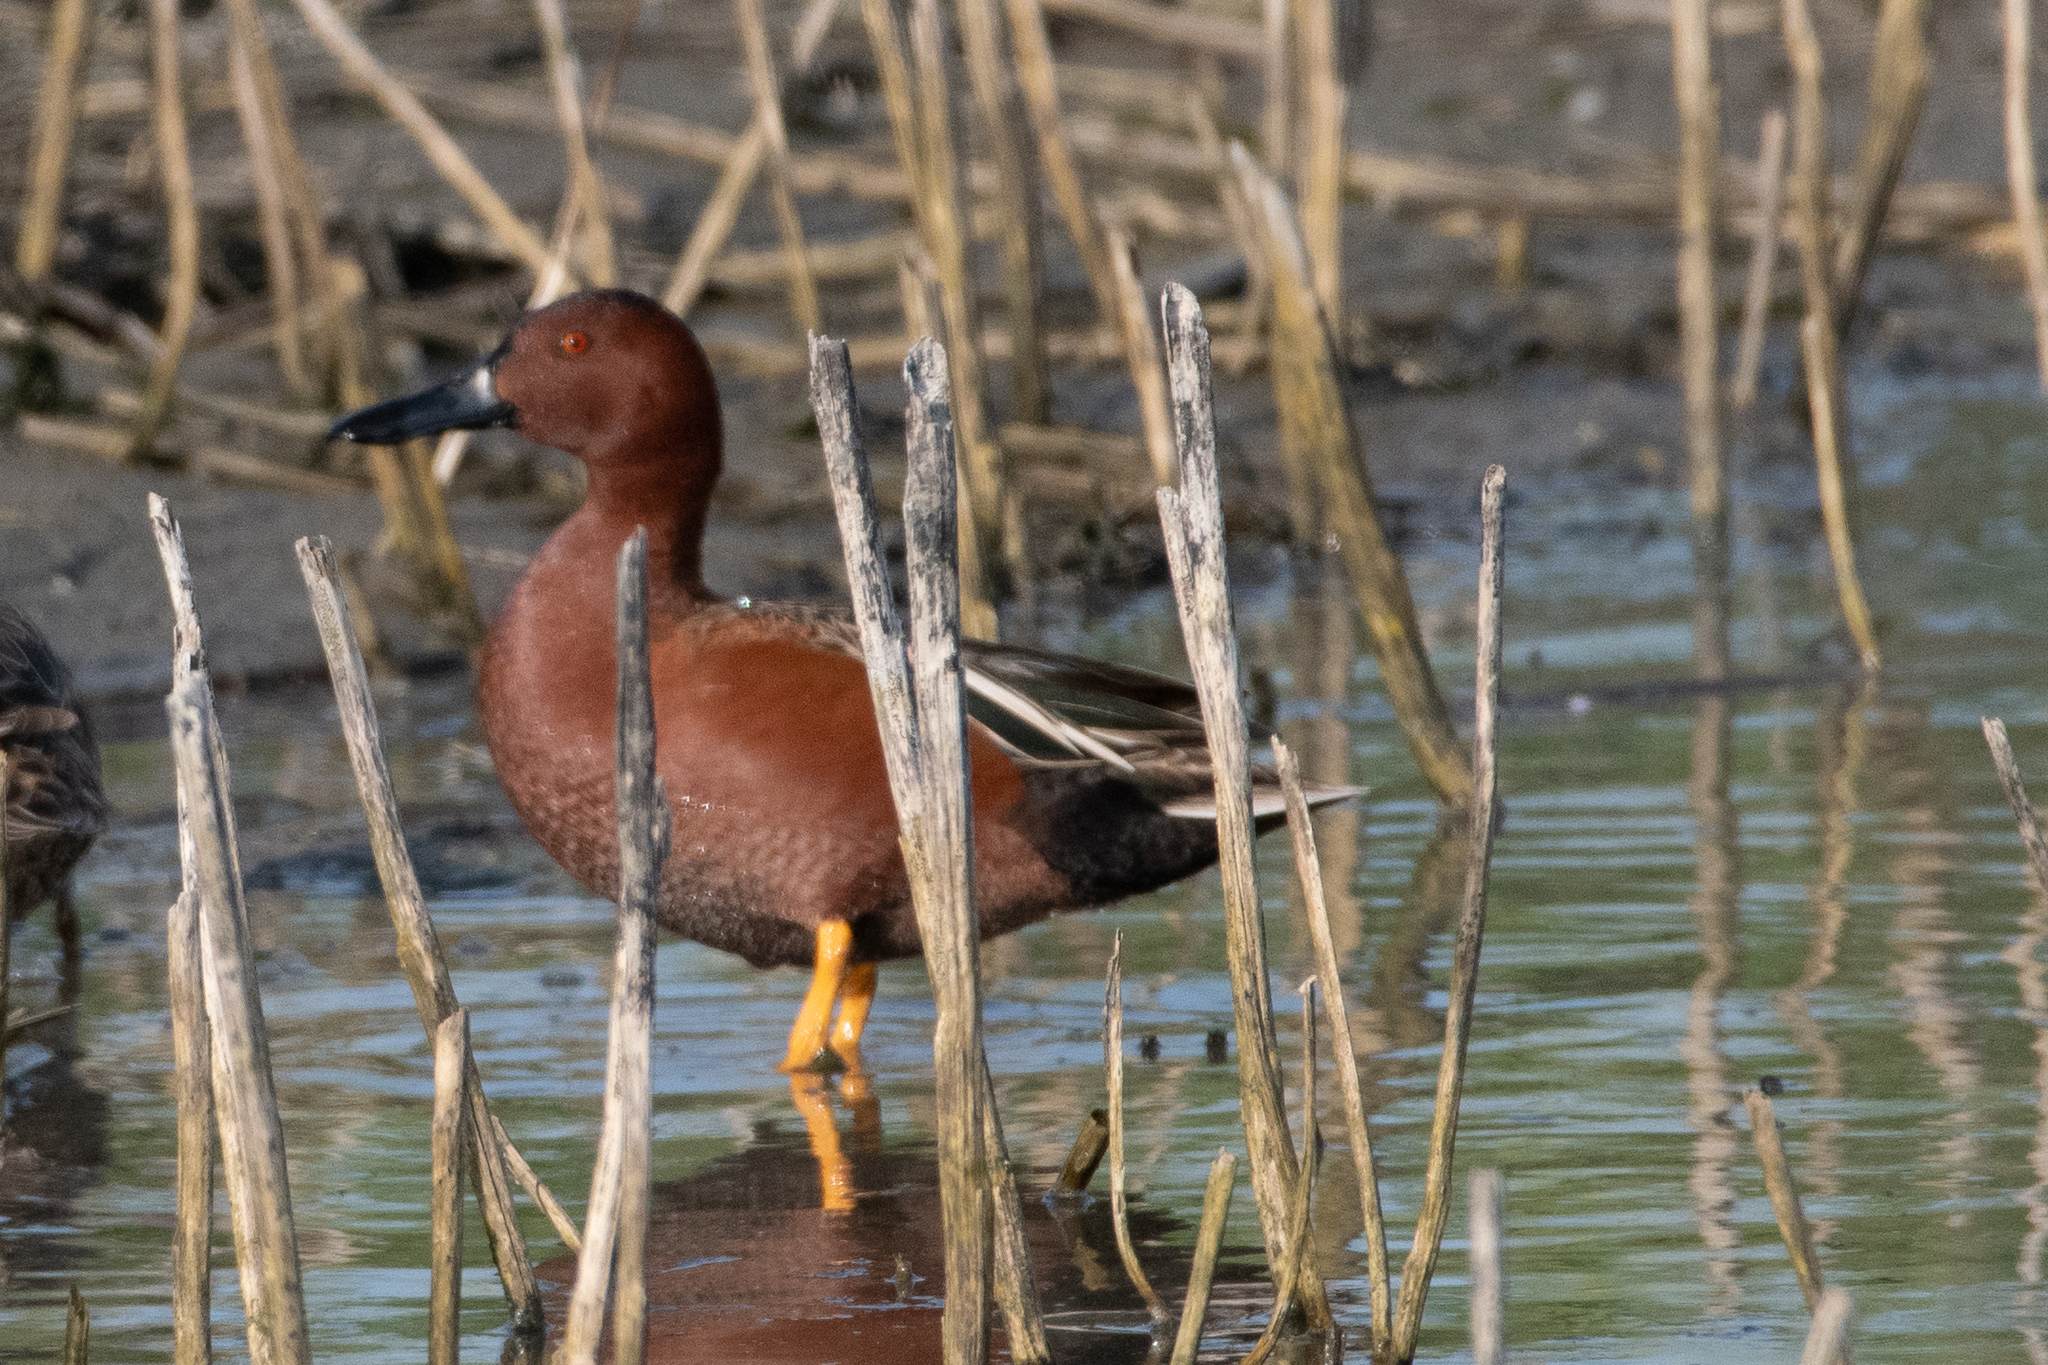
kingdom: Animalia
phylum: Chordata
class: Aves
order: Anseriformes
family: Anatidae
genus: Spatula
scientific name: Spatula cyanoptera
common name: Cinnamon teal
